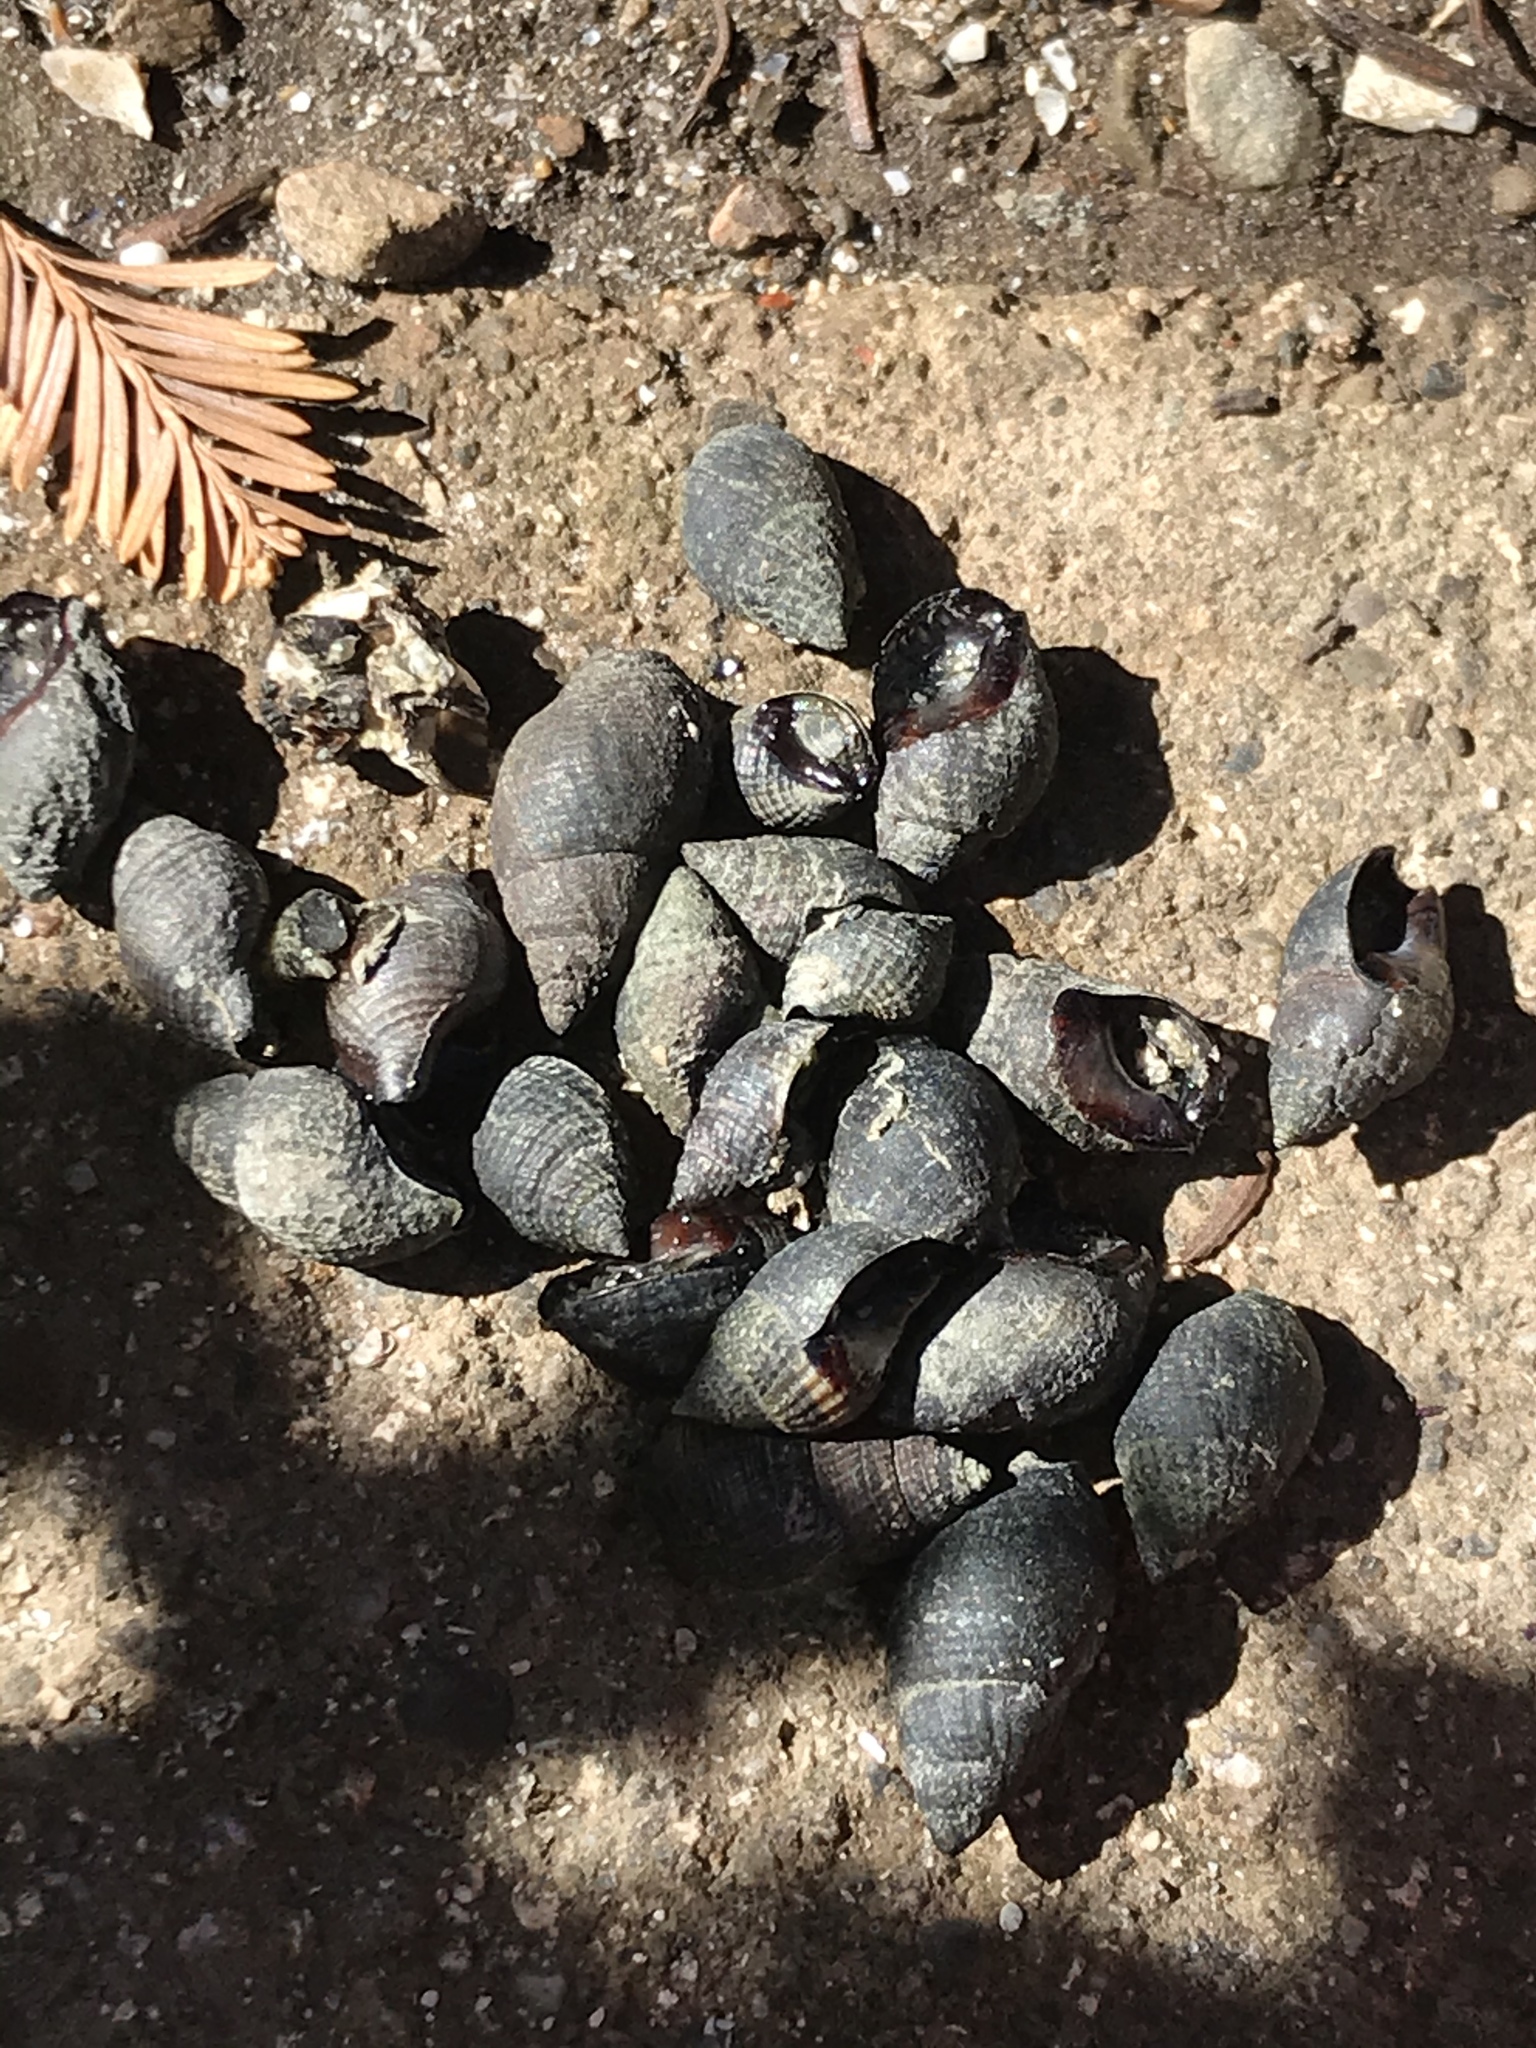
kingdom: Animalia
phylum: Mollusca
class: Gastropoda
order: Neogastropoda
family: Nassariidae
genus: Ilyanassa
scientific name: Ilyanassa obsoleta
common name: Eastern mudsnail
